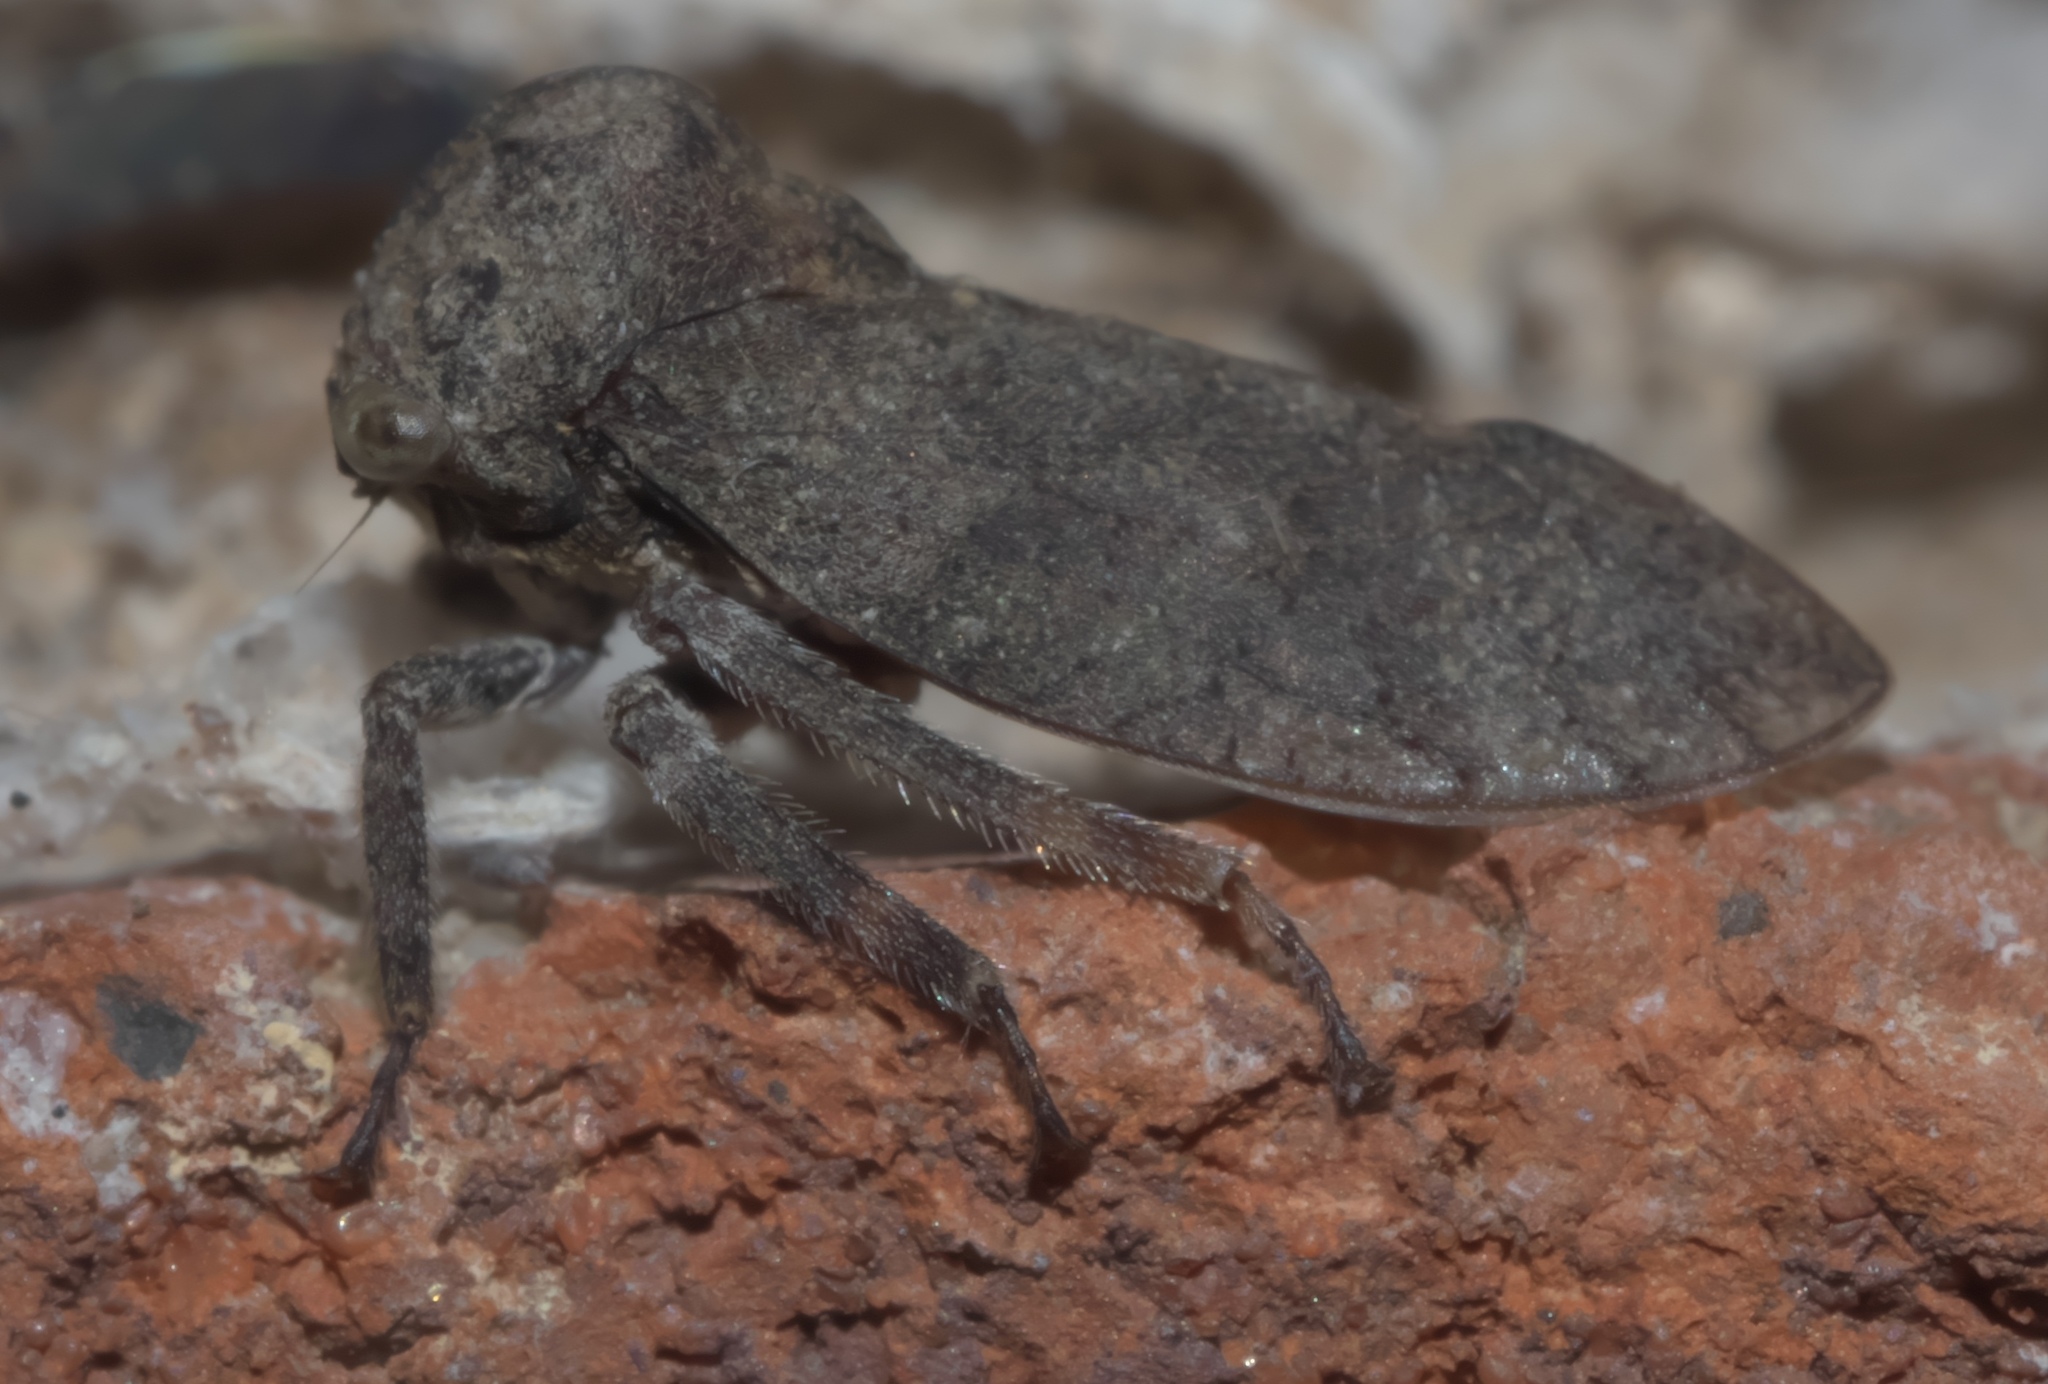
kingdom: Animalia
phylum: Arthropoda
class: Insecta
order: Hemiptera
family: Membracidae
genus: Microcentrus
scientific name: Microcentrus caryae
